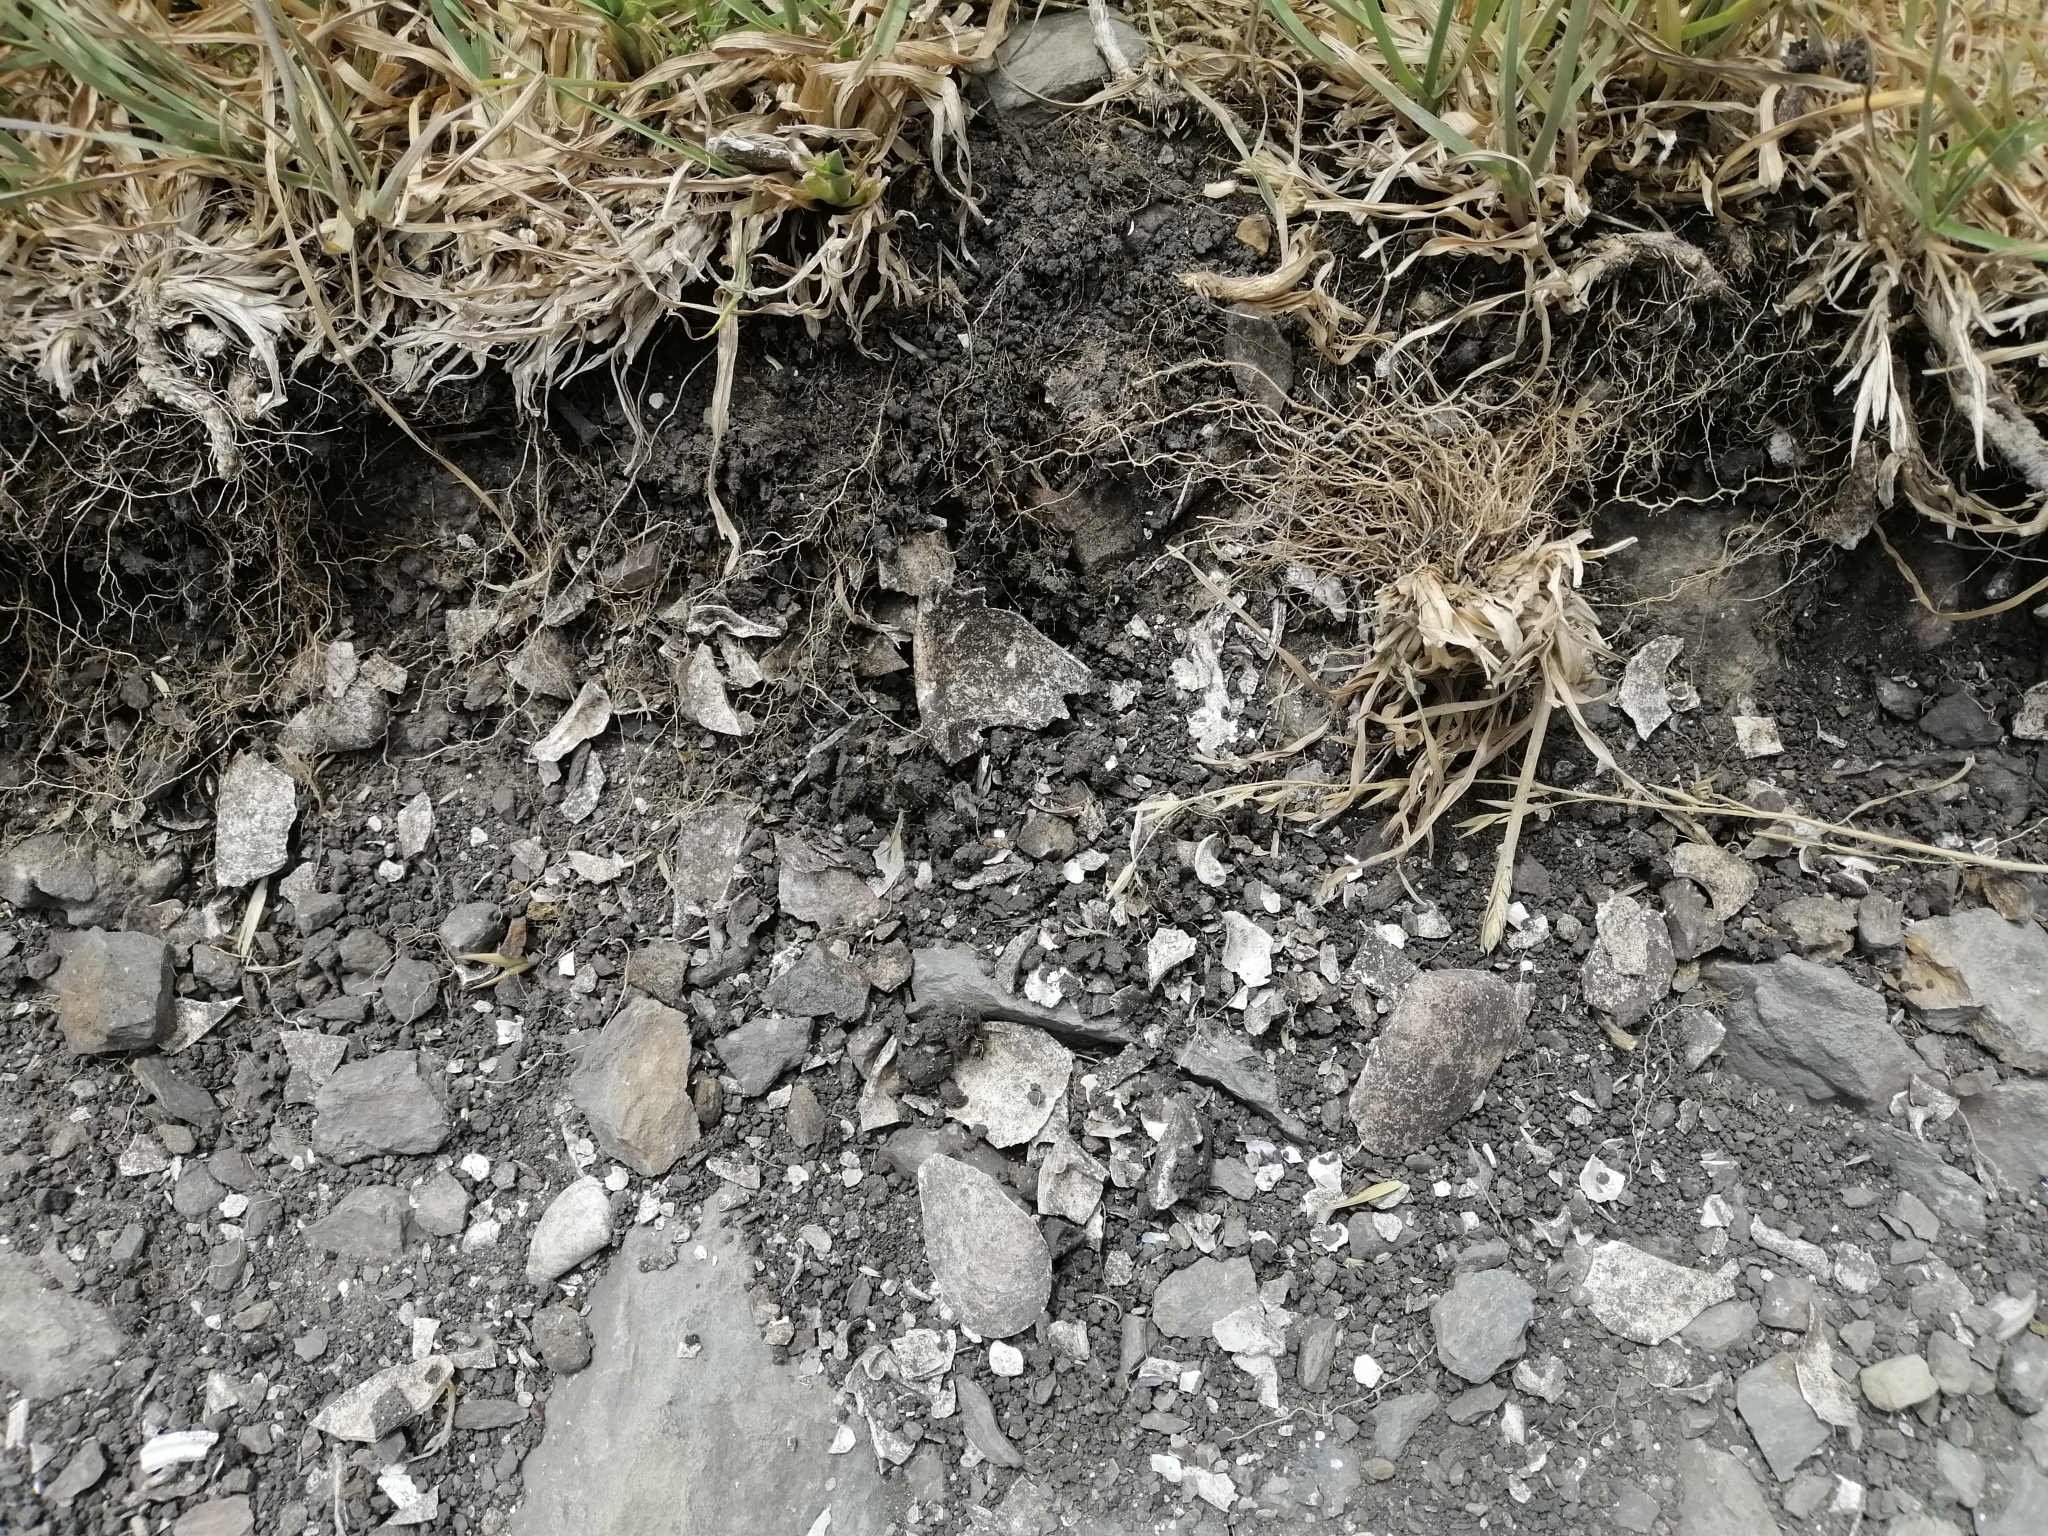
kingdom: Animalia
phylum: Mollusca
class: Gastropoda
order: Trochida
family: Turbinidae
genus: Lunella
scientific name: Lunella smaragda
